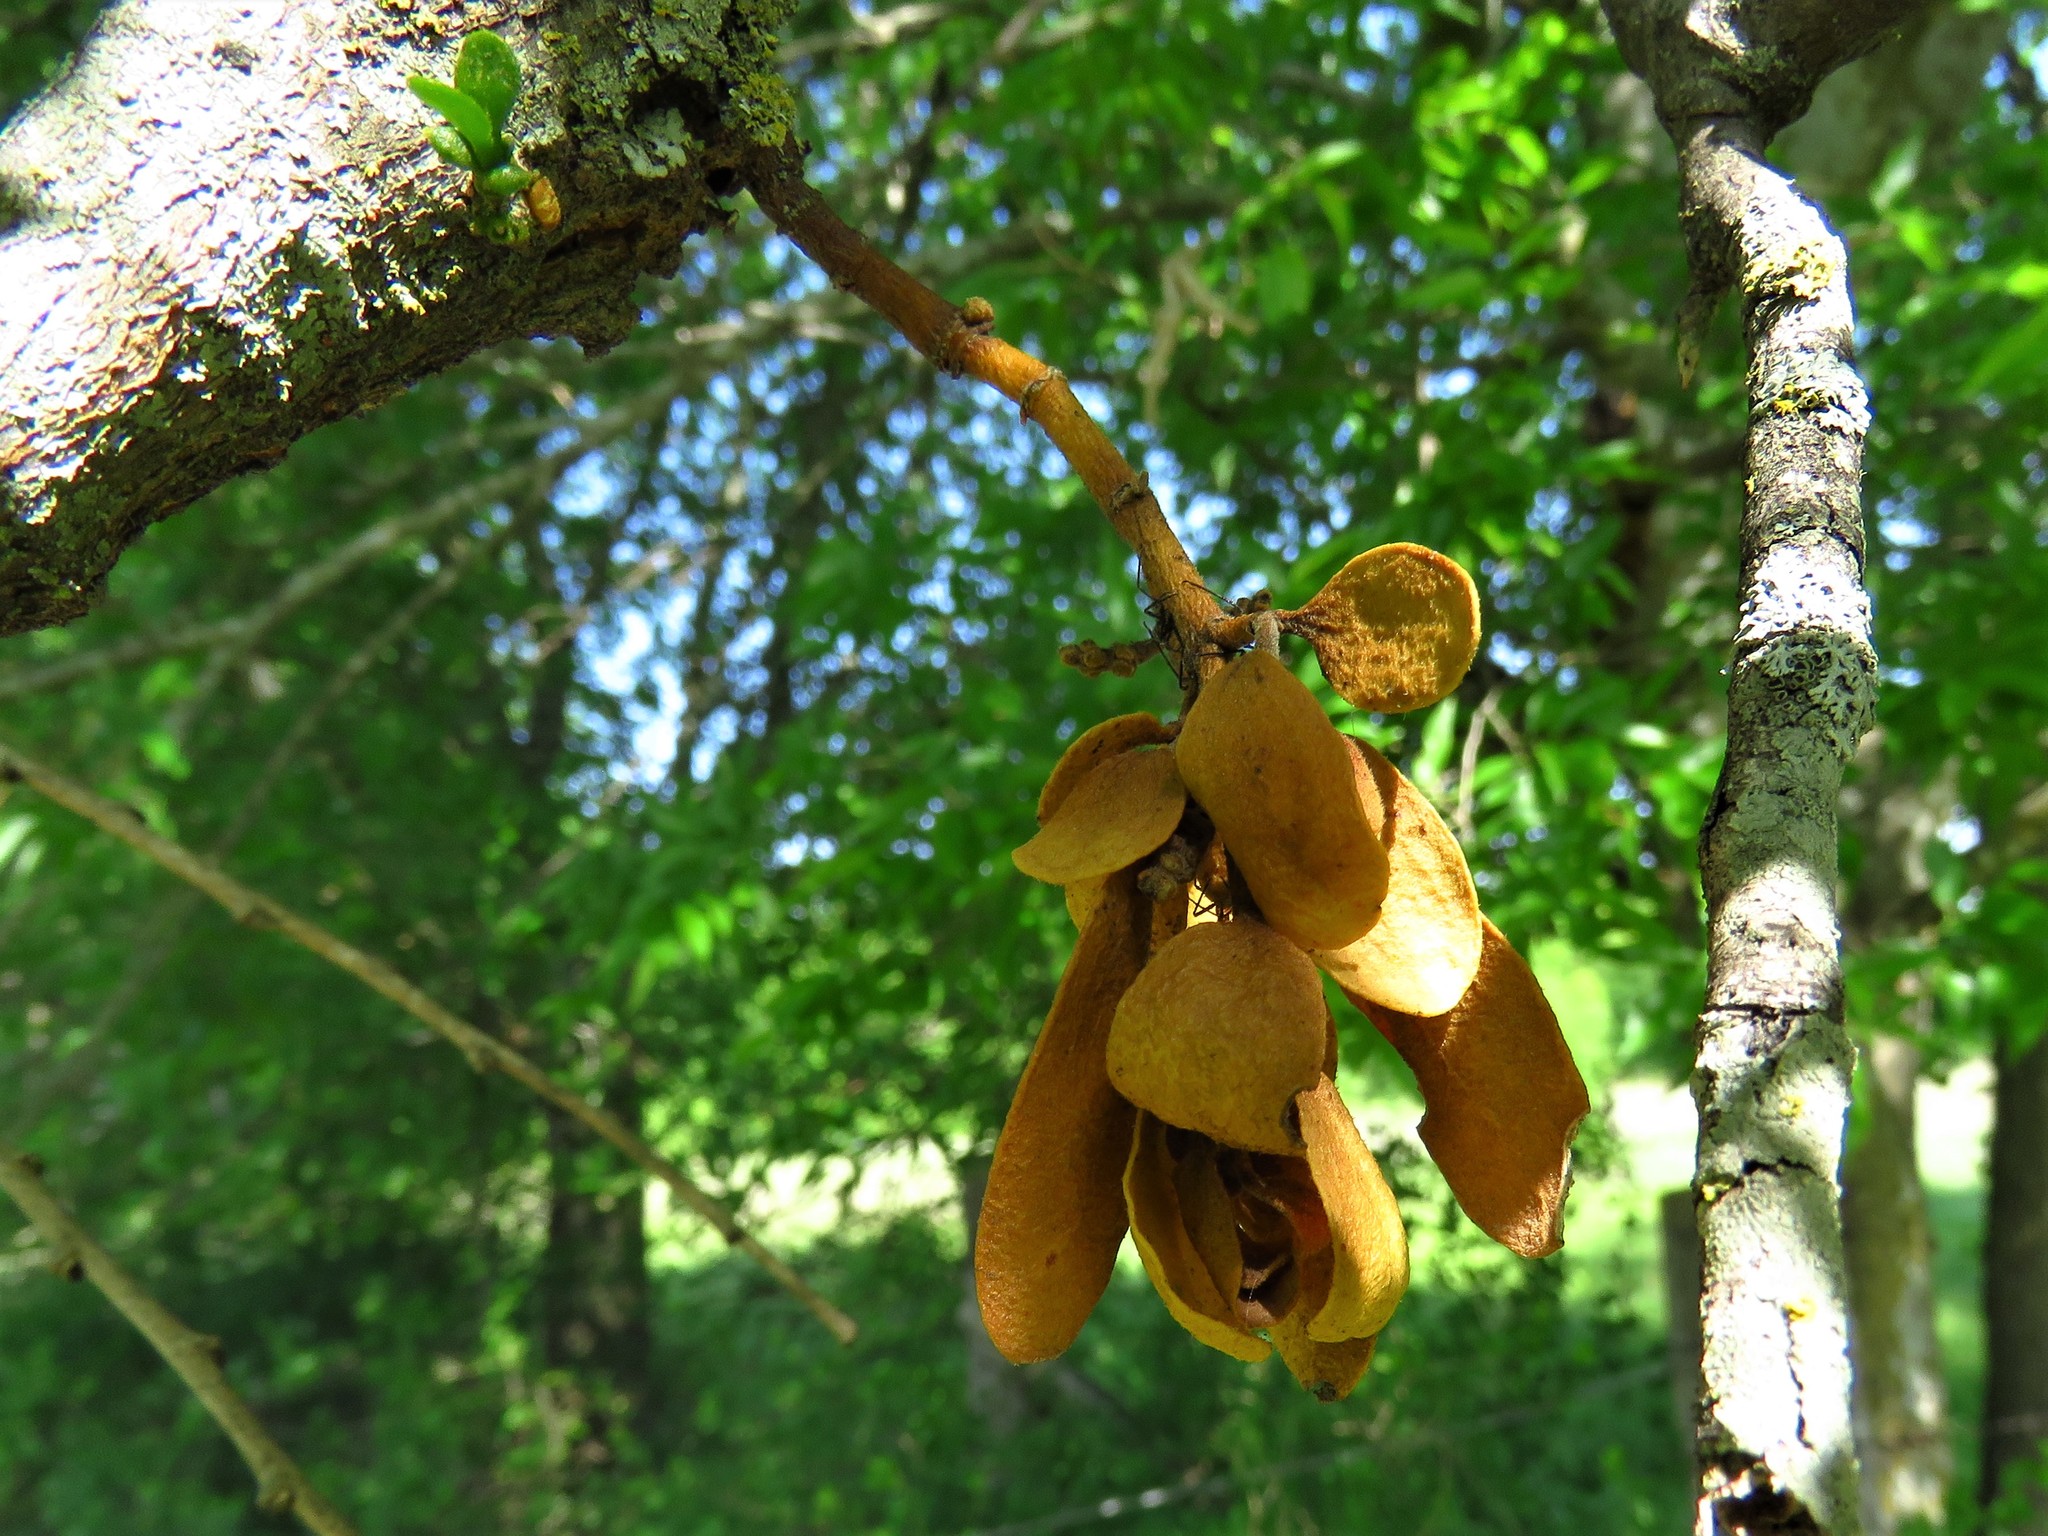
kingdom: Plantae
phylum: Tracheophyta
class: Magnoliopsida
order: Santalales
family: Viscaceae
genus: Phoradendron
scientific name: Phoradendron leucarpum
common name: Pacific mistletoe
